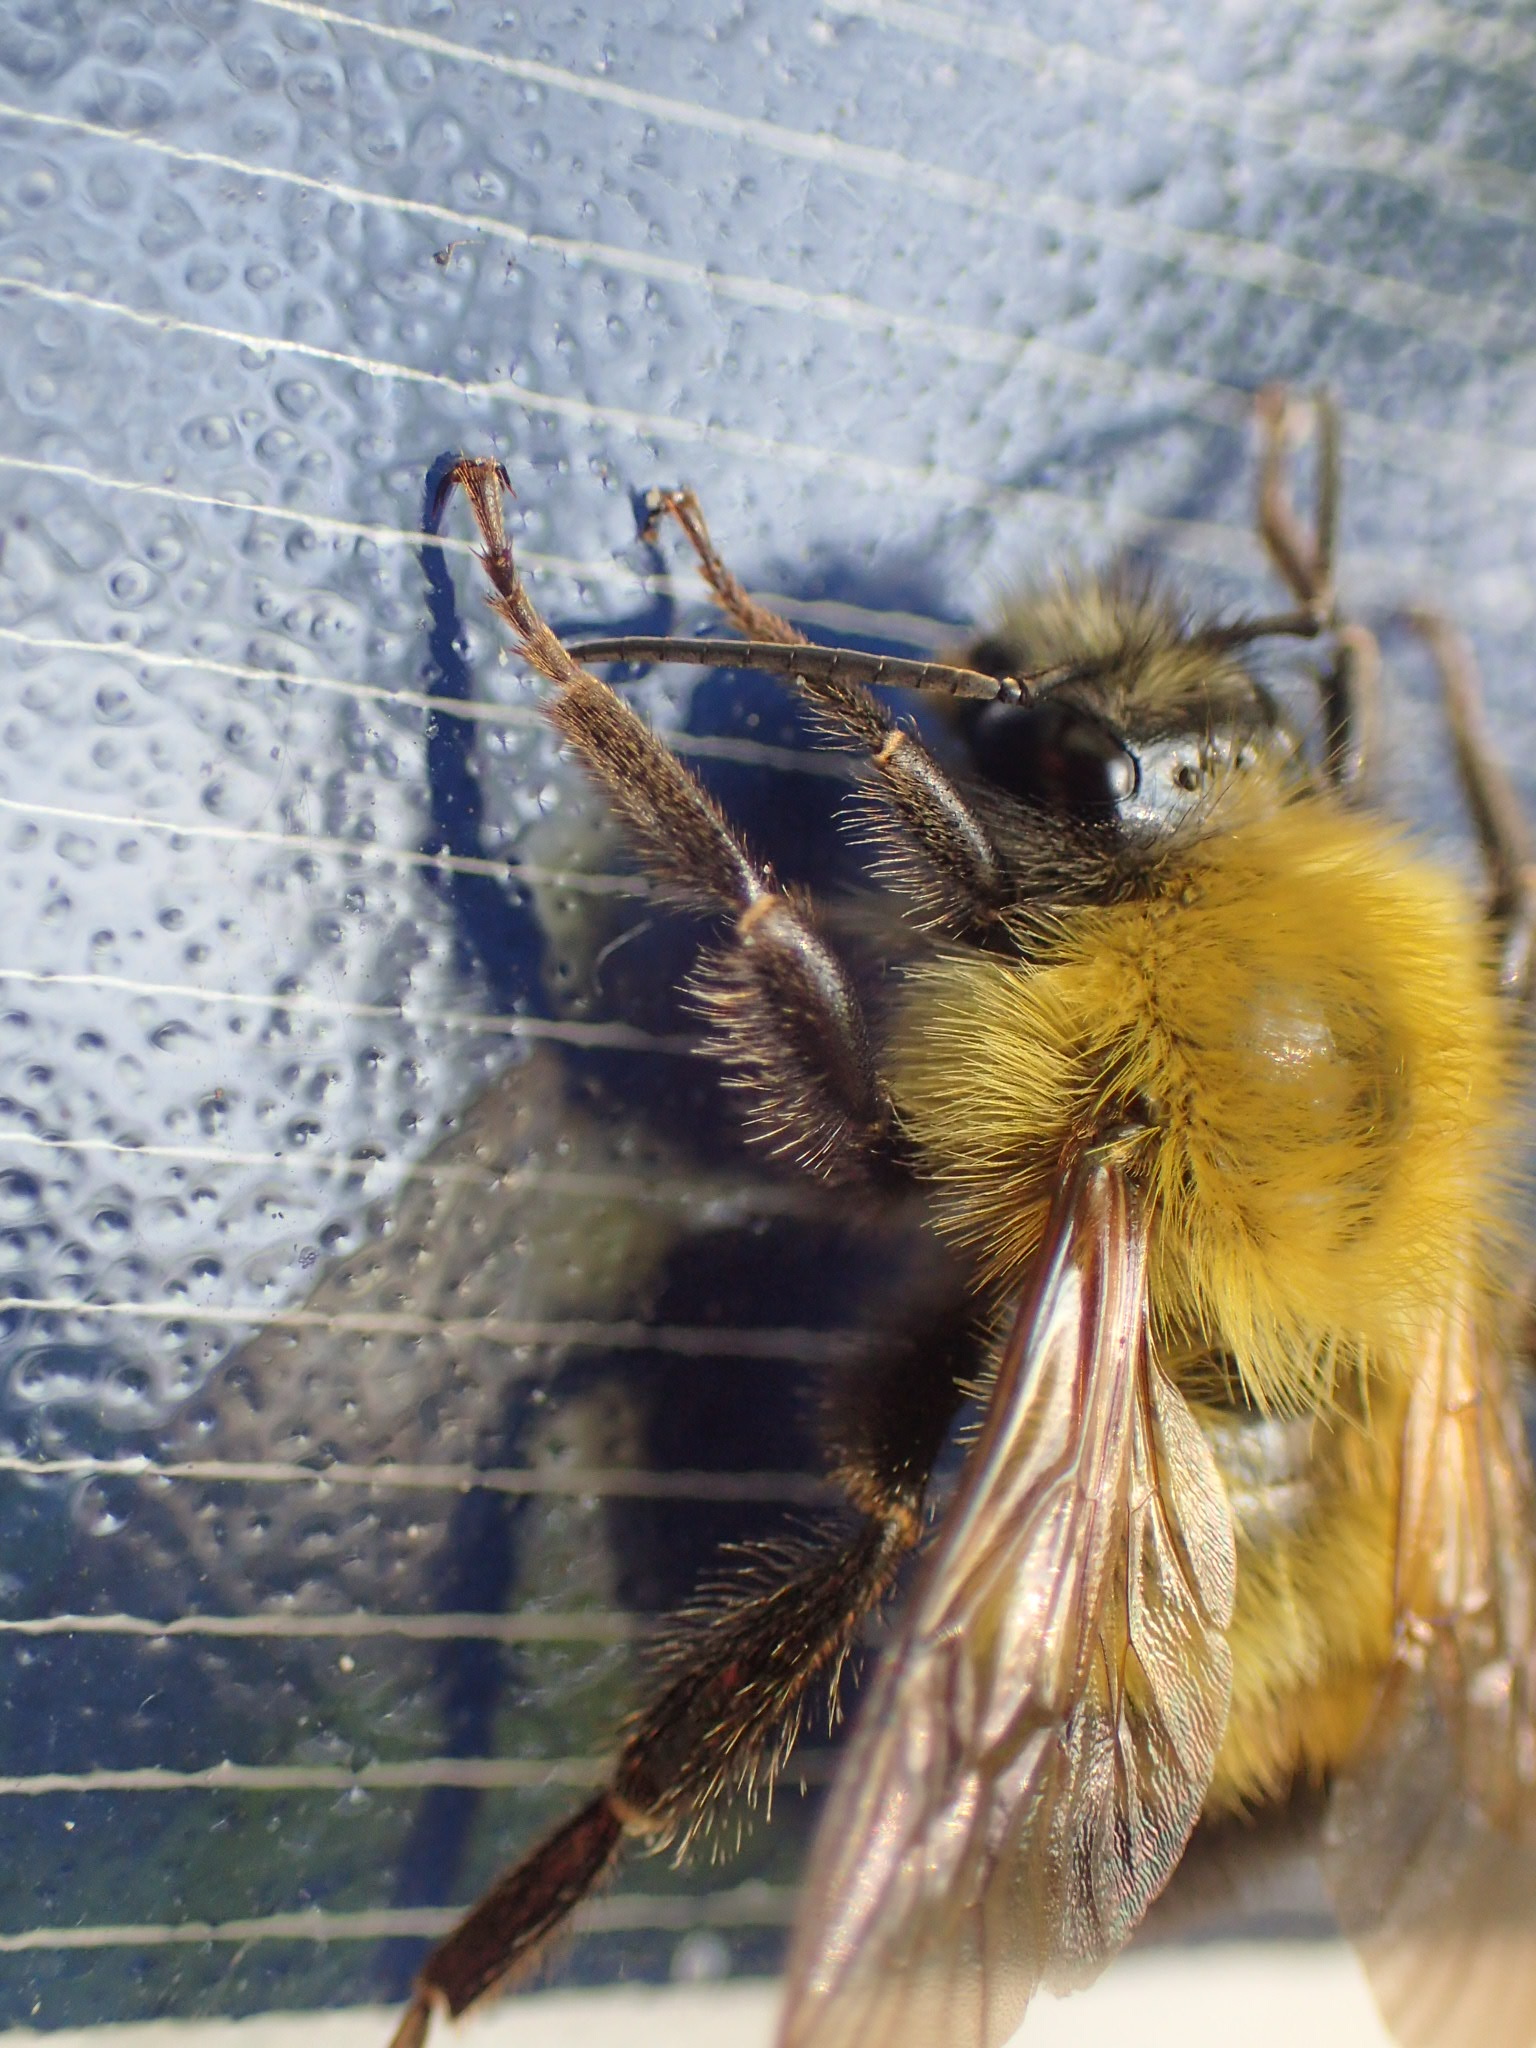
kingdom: Animalia
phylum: Arthropoda
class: Insecta
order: Hymenoptera
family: Apidae
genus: Bombus
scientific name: Bombus perplexus
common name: Confusing bumble bee
